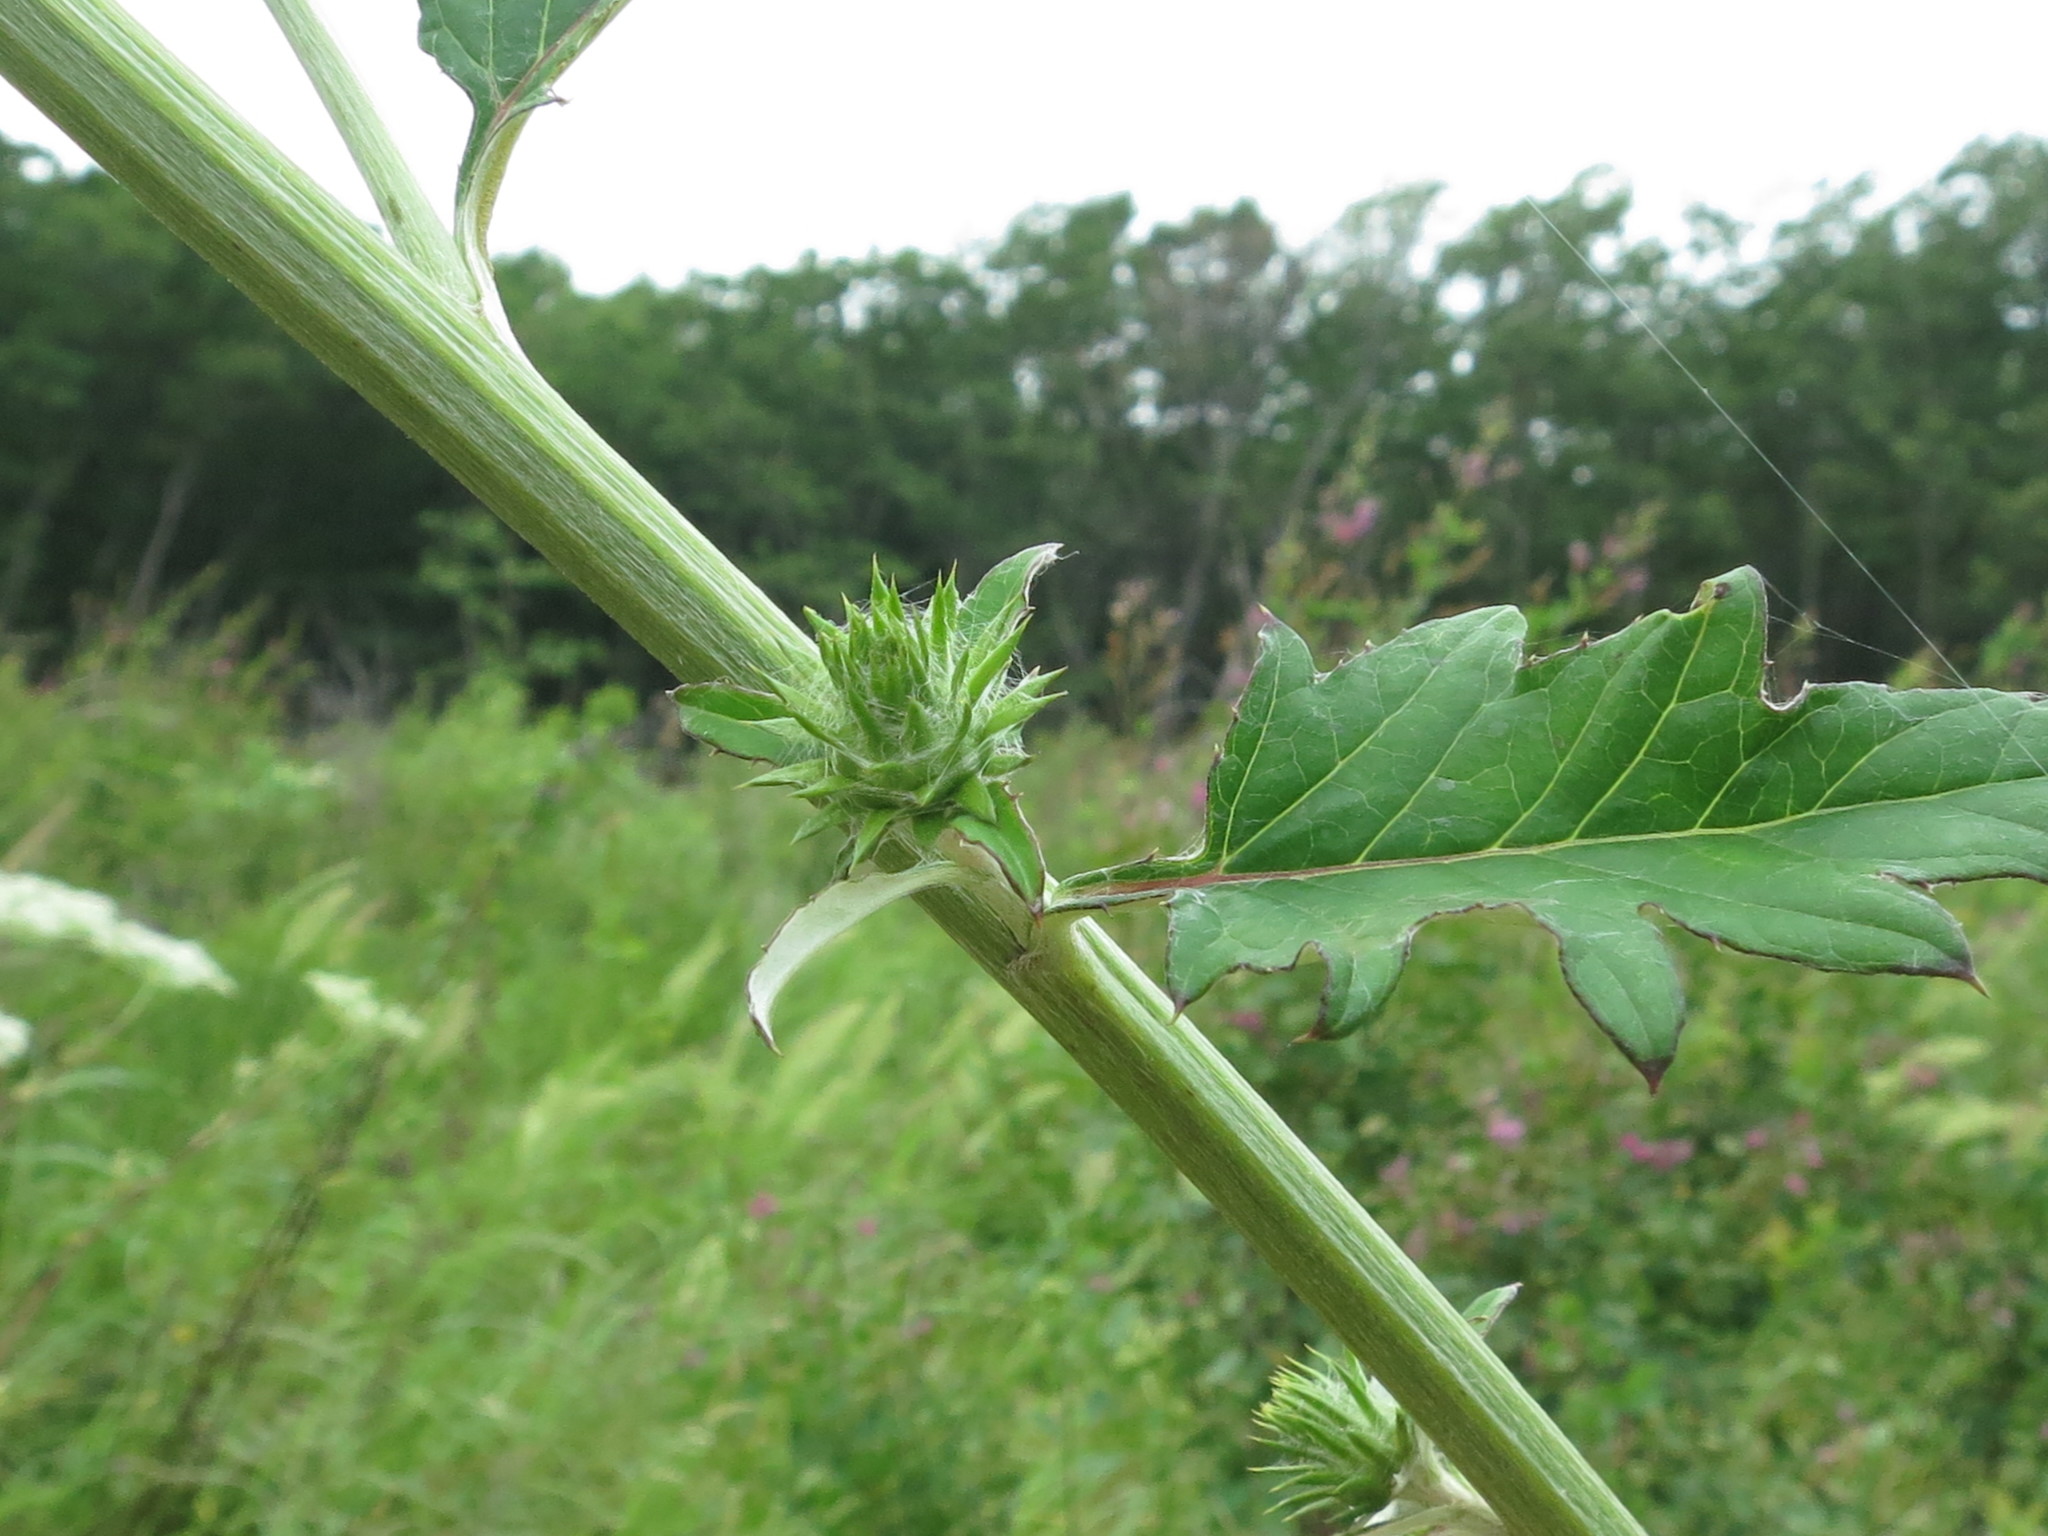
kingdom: Plantae
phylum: Tracheophyta
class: Magnoliopsida
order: Asterales
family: Asteraceae
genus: Synurus
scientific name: Synurus deltoides
